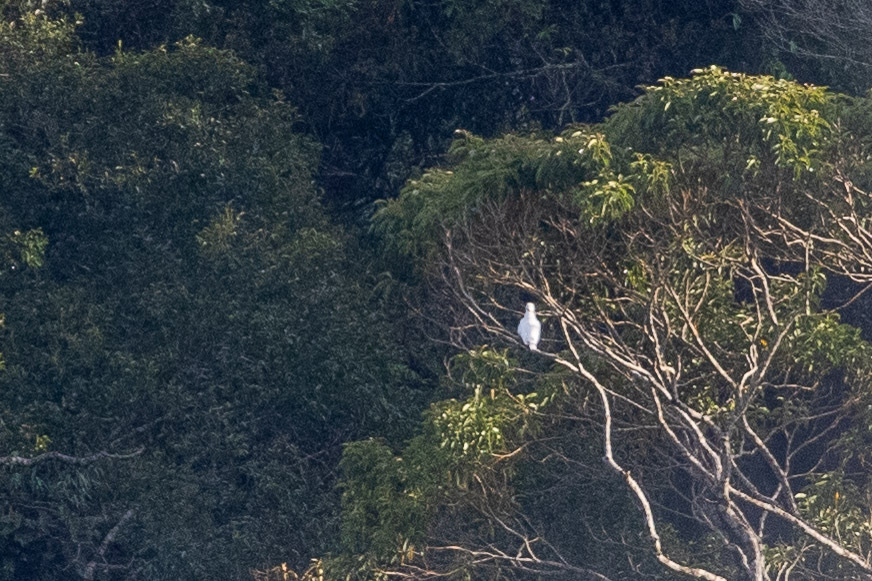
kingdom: Animalia
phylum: Chordata
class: Aves
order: Passeriformes
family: Cotingidae
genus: Procnias
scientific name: Procnias nudicollis
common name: Bare-throated bellbird
